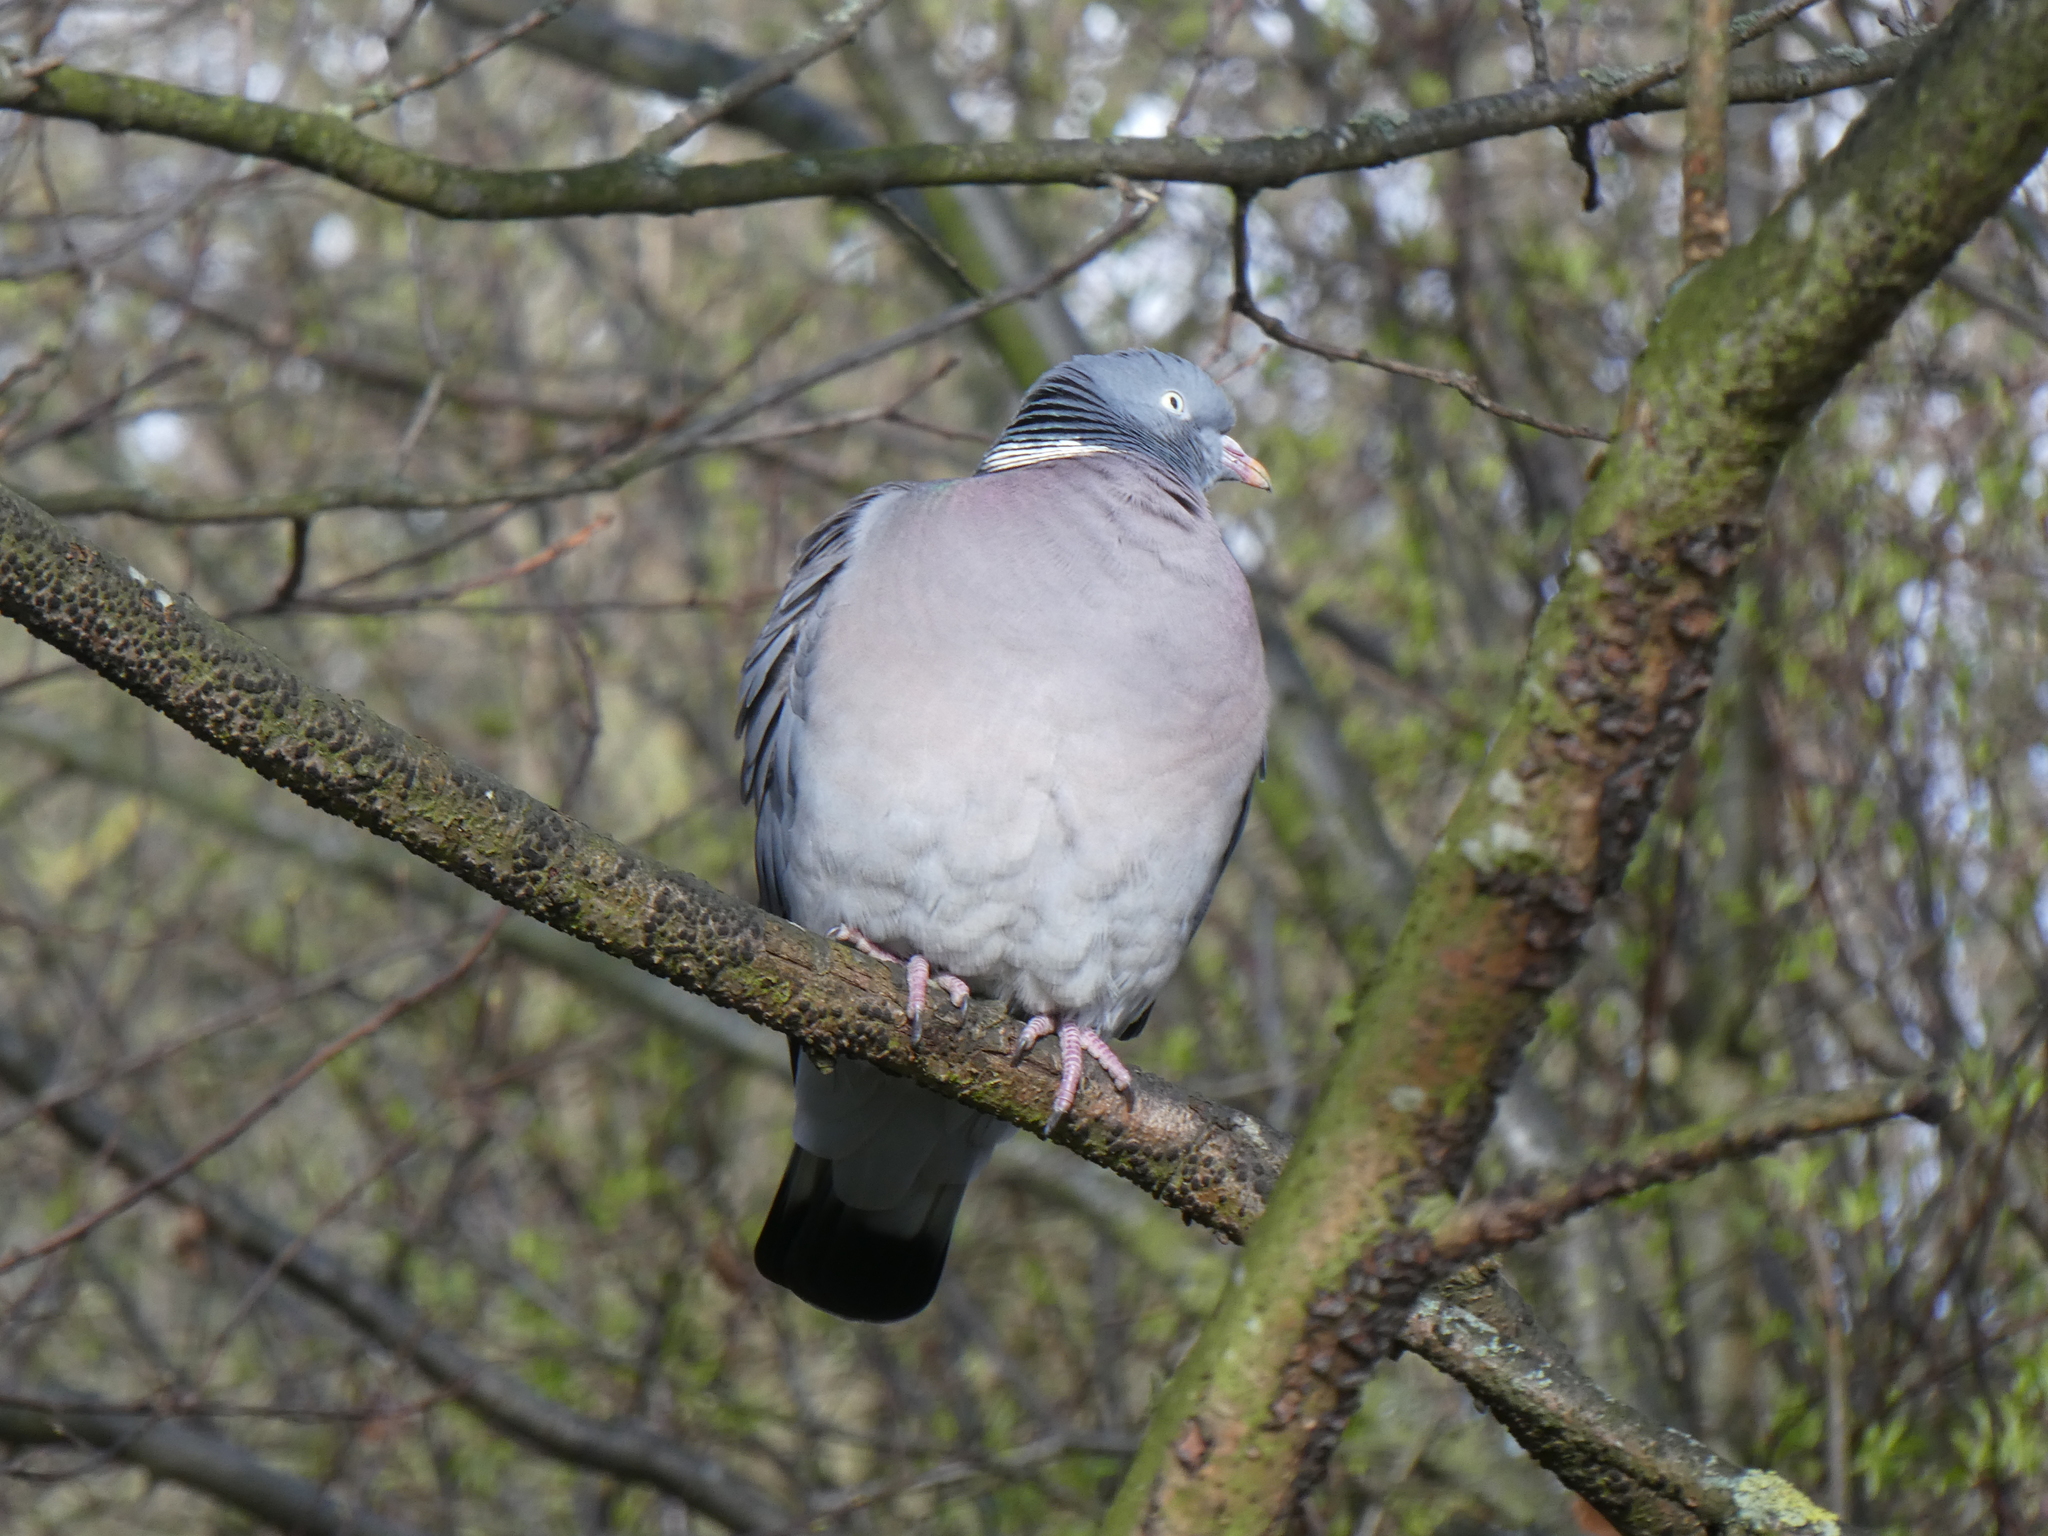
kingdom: Animalia
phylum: Chordata
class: Aves
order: Columbiformes
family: Columbidae
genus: Columba
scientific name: Columba palumbus
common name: Common wood pigeon
